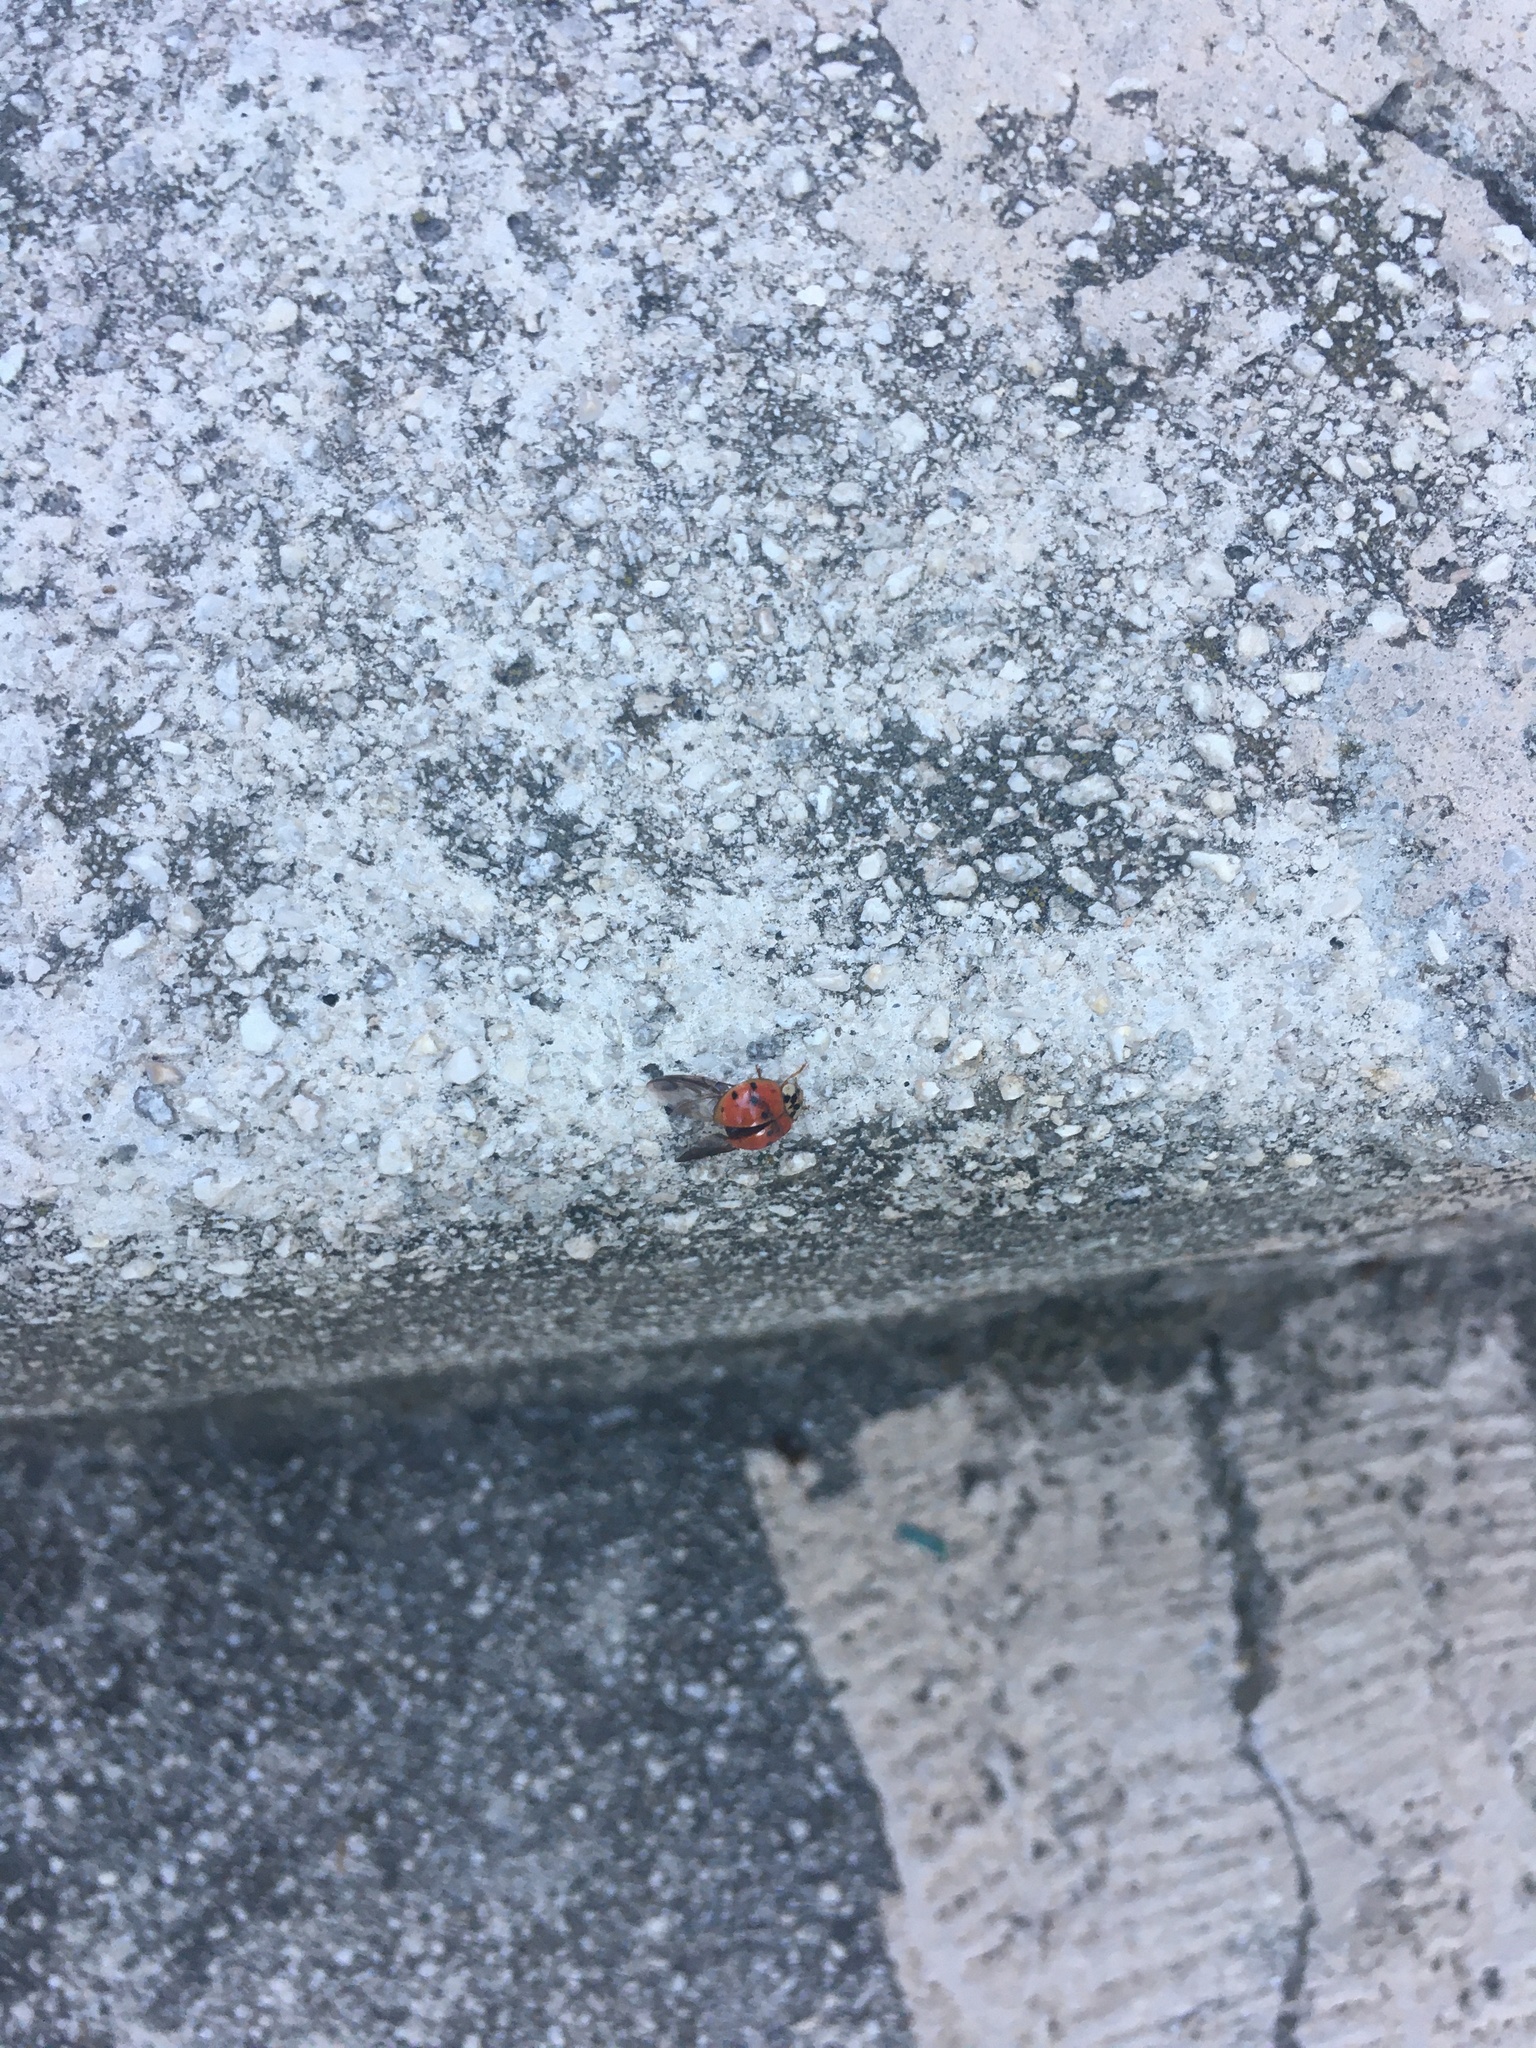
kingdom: Animalia
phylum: Arthropoda
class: Insecta
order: Coleoptera
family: Coccinellidae
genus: Harmonia
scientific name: Harmonia axyridis
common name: Harlequin ladybird
